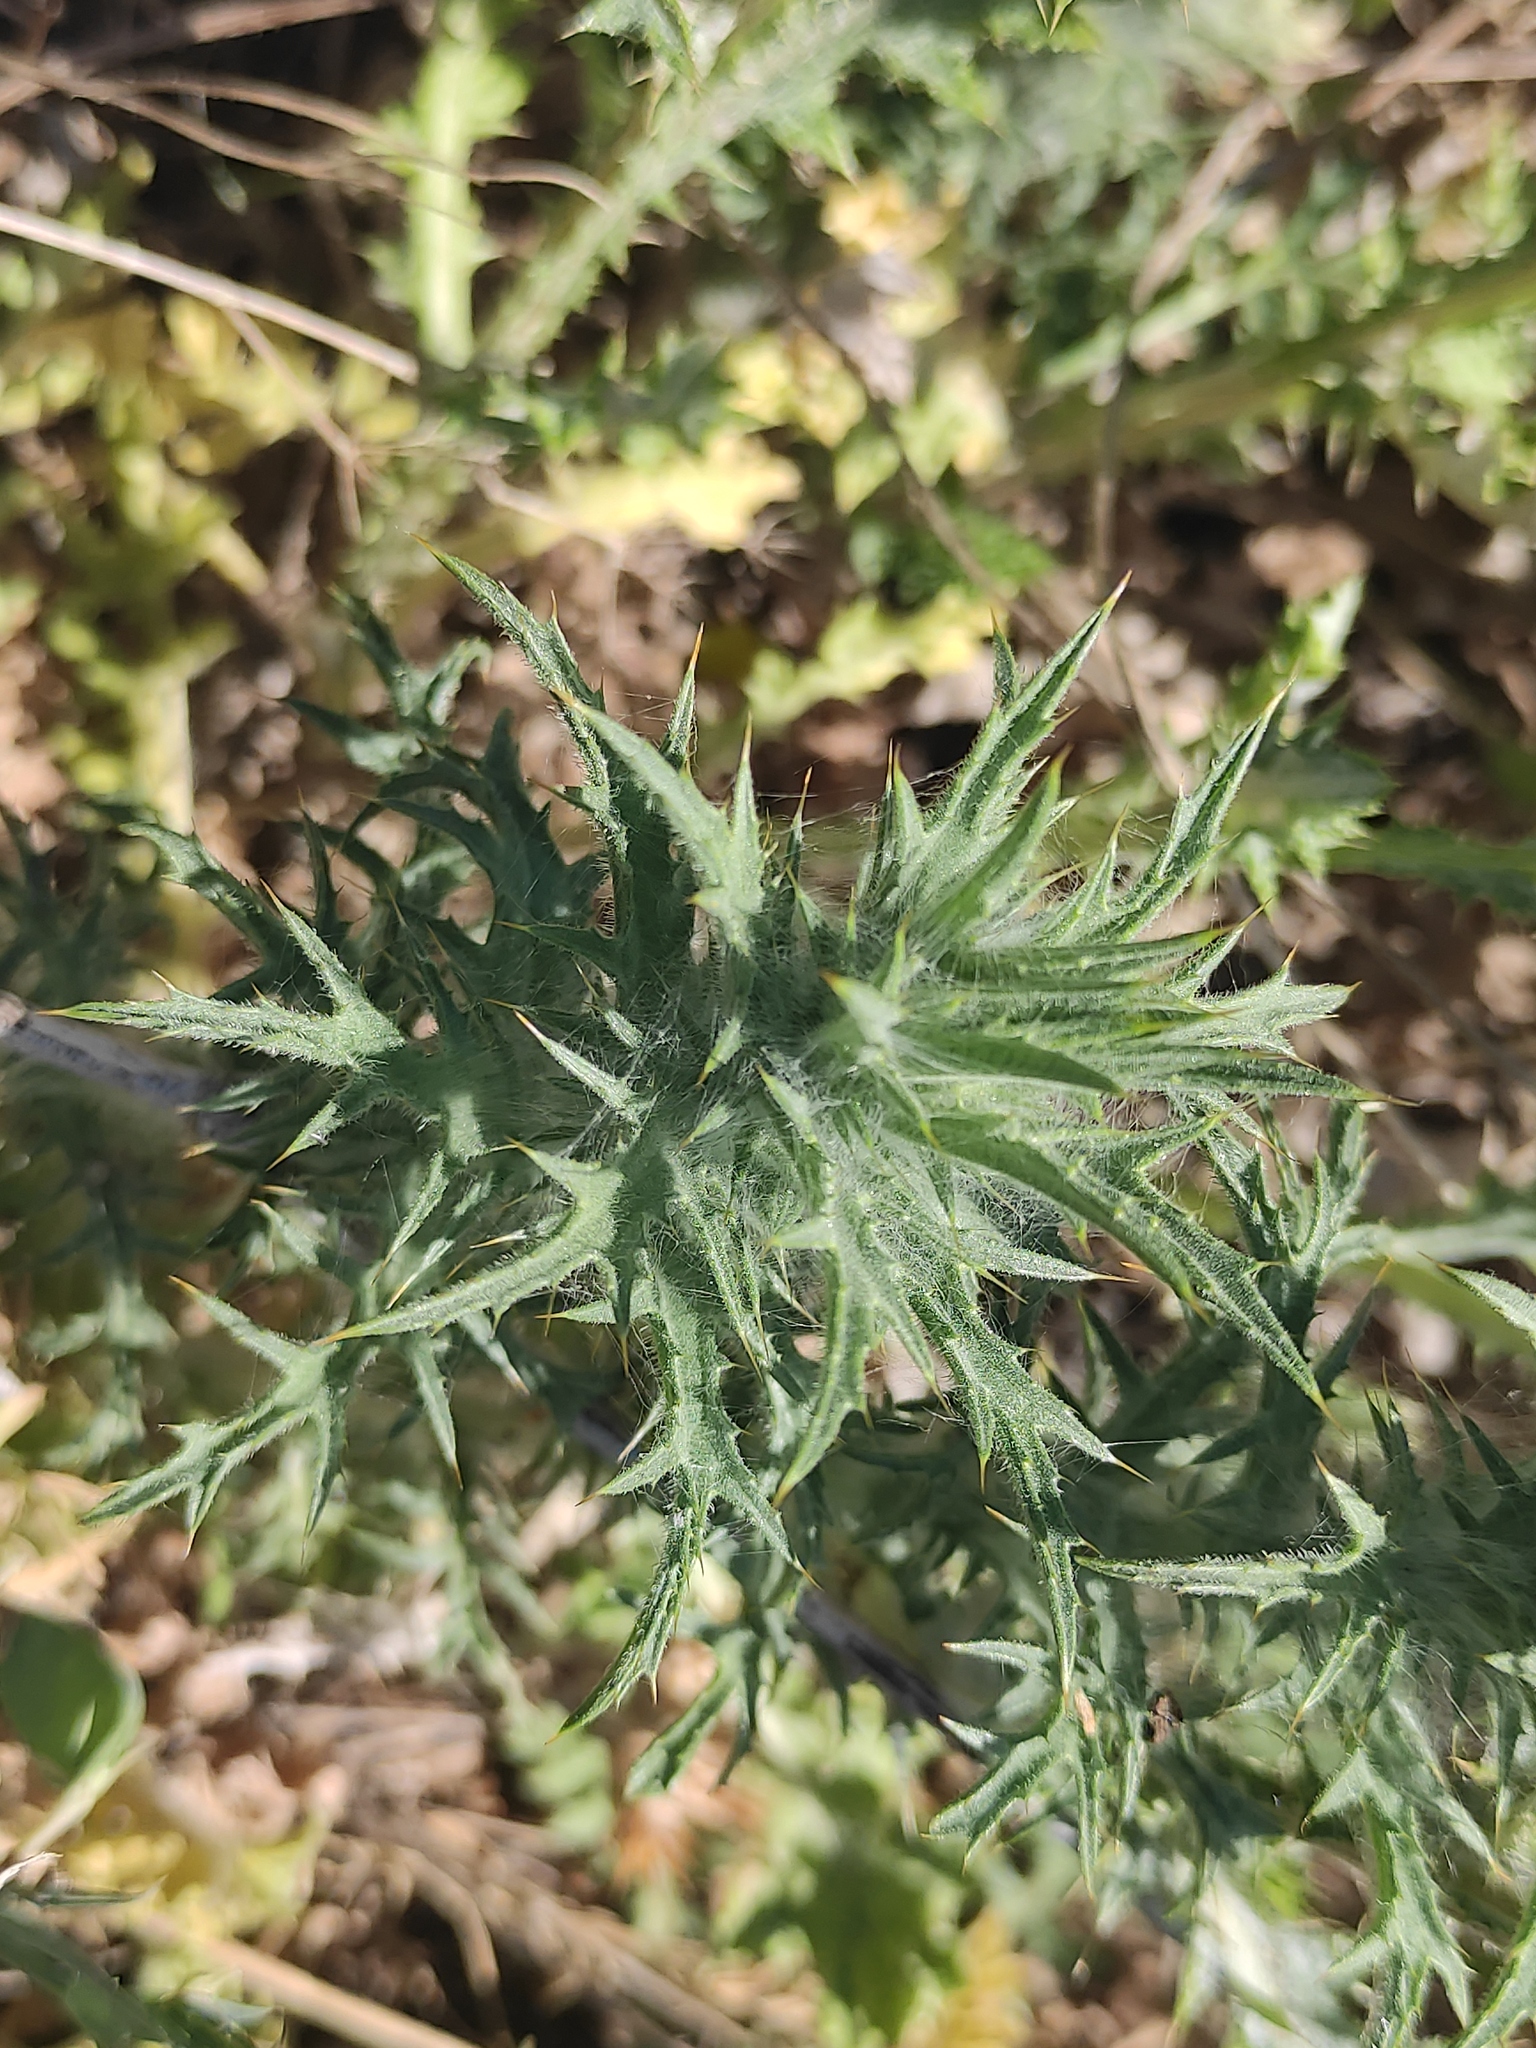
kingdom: Plantae
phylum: Tracheophyta
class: Magnoliopsida
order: Asterales
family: Asteraceae
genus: Carthamus
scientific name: Carthamus lanatus
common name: Downy safflower
